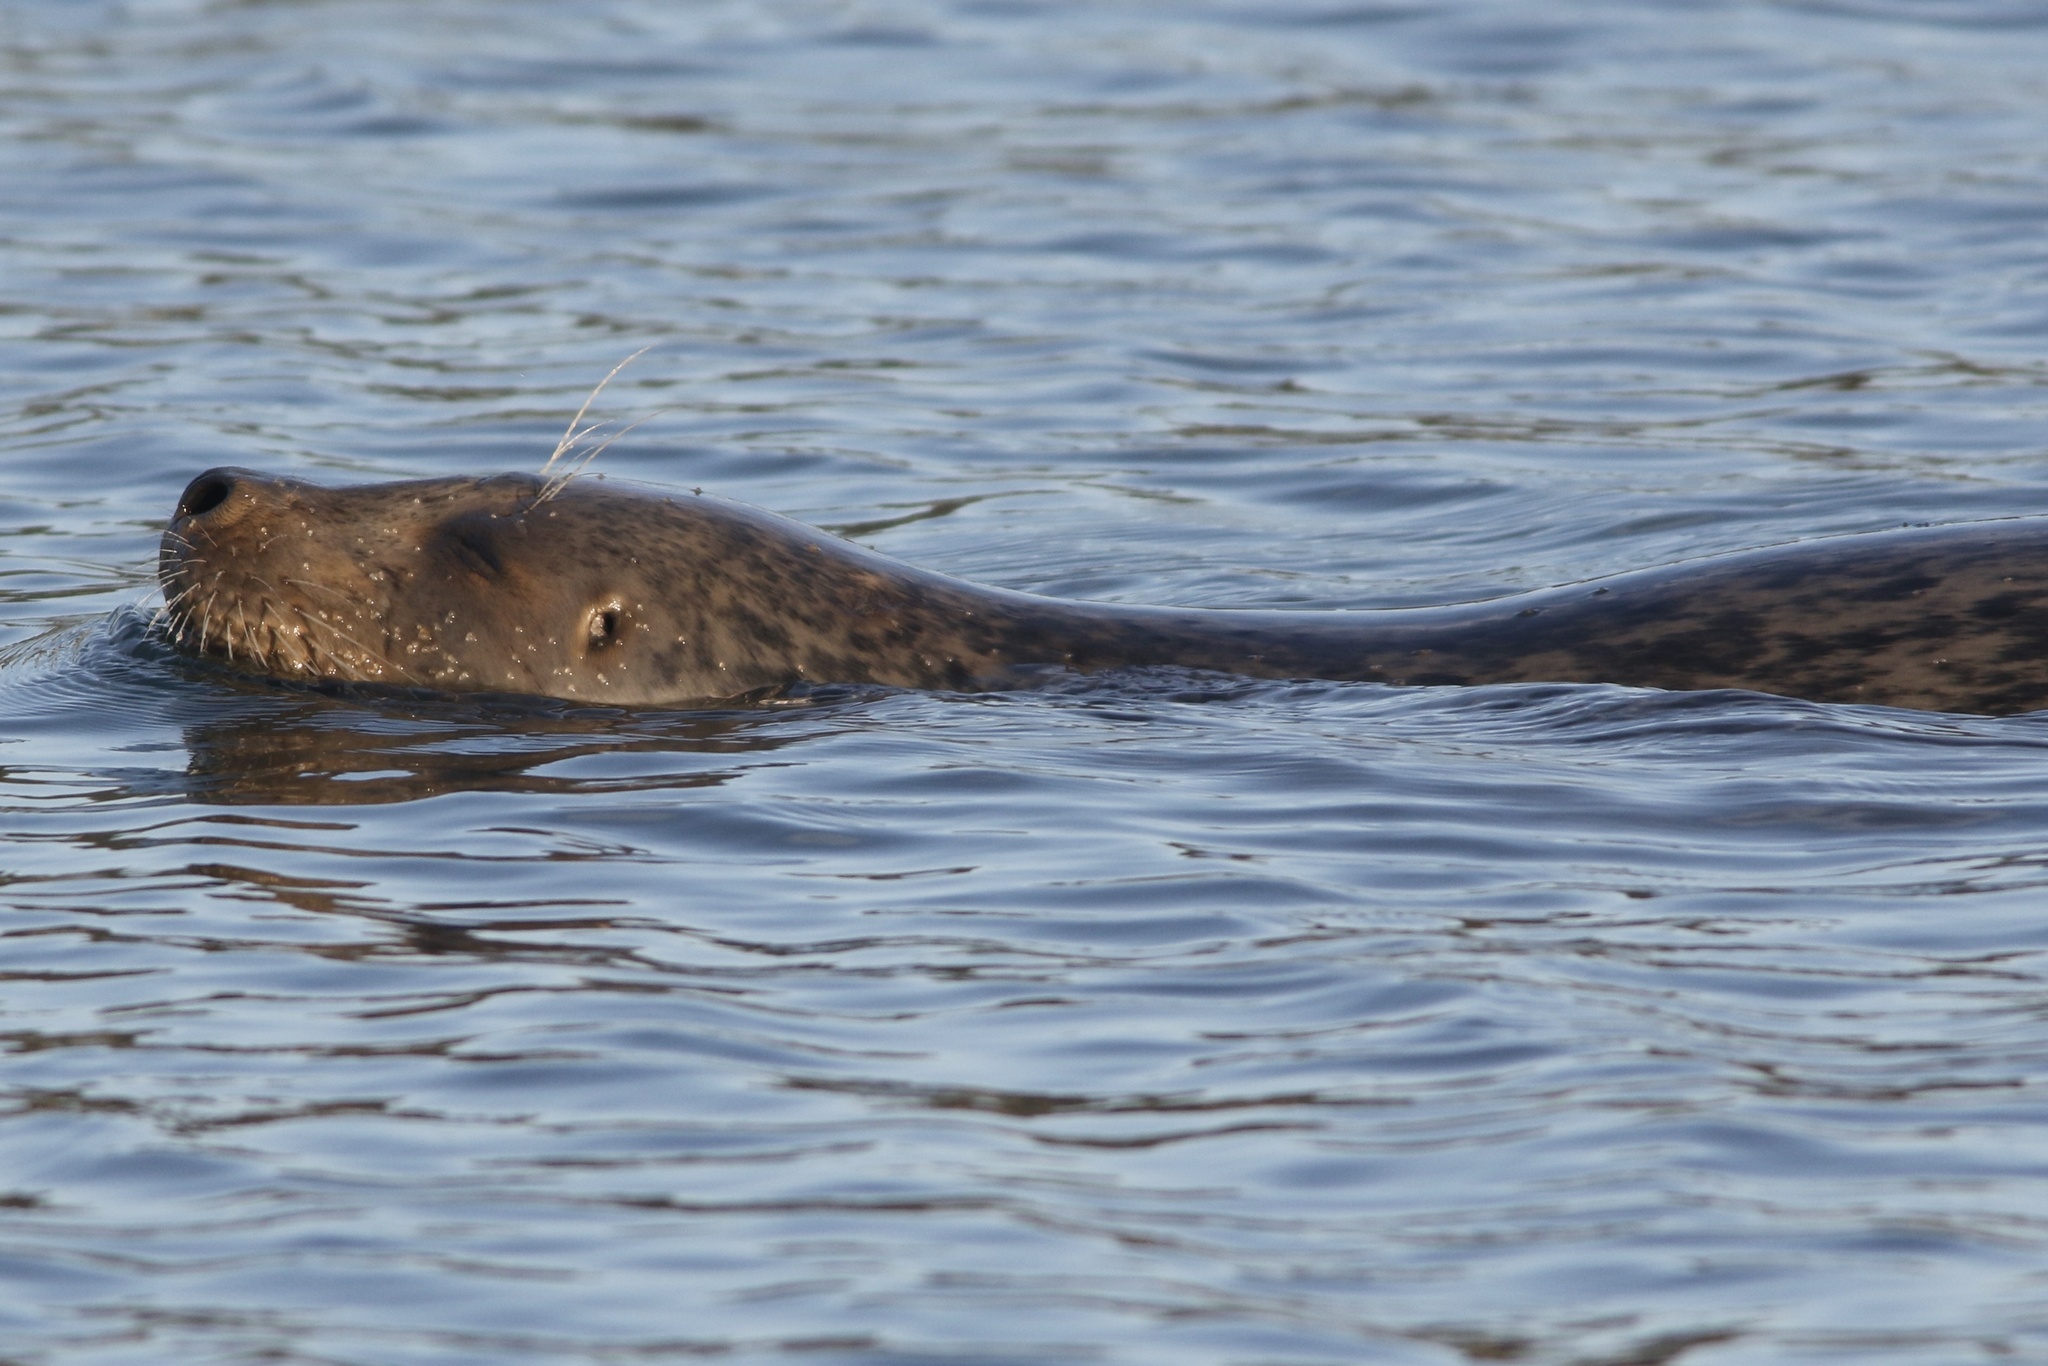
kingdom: Animalia
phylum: Chordata
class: Mammalia
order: Carnivora
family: Phocidae
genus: Phoca
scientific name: Phoca vitulina
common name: Harbor seal
